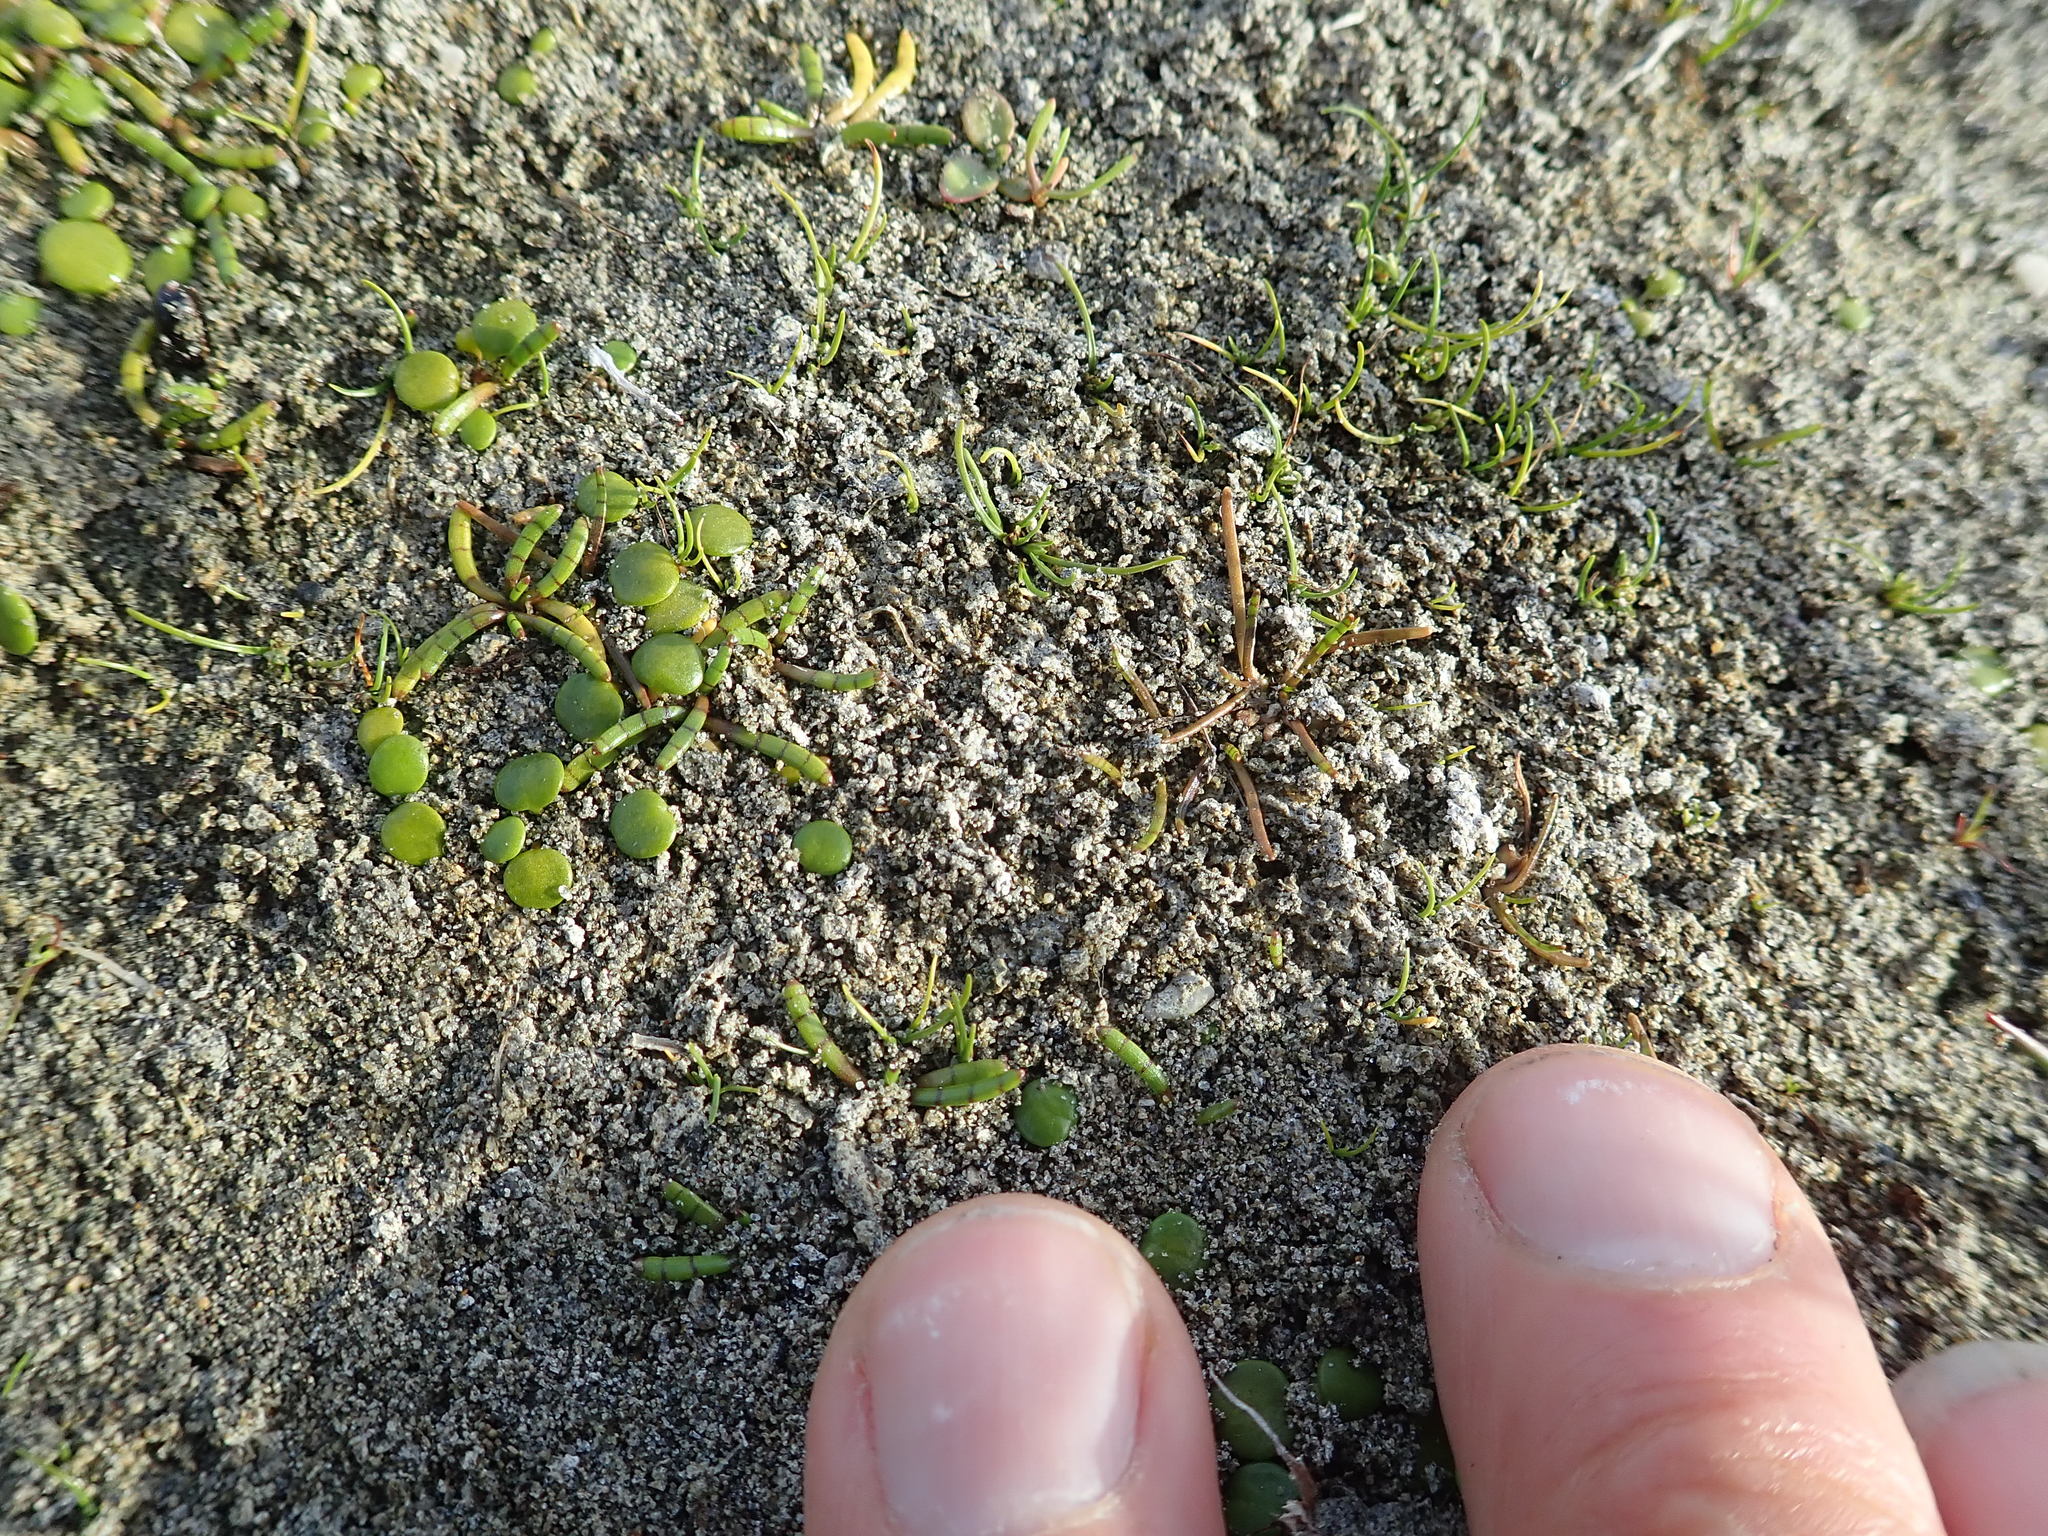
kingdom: Plantae
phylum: Tracheophyta
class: Magnoliopsida
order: Apiales
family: Apiaceae
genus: Lilaeopsis
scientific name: Lilaeopsis novae-zelandiae
